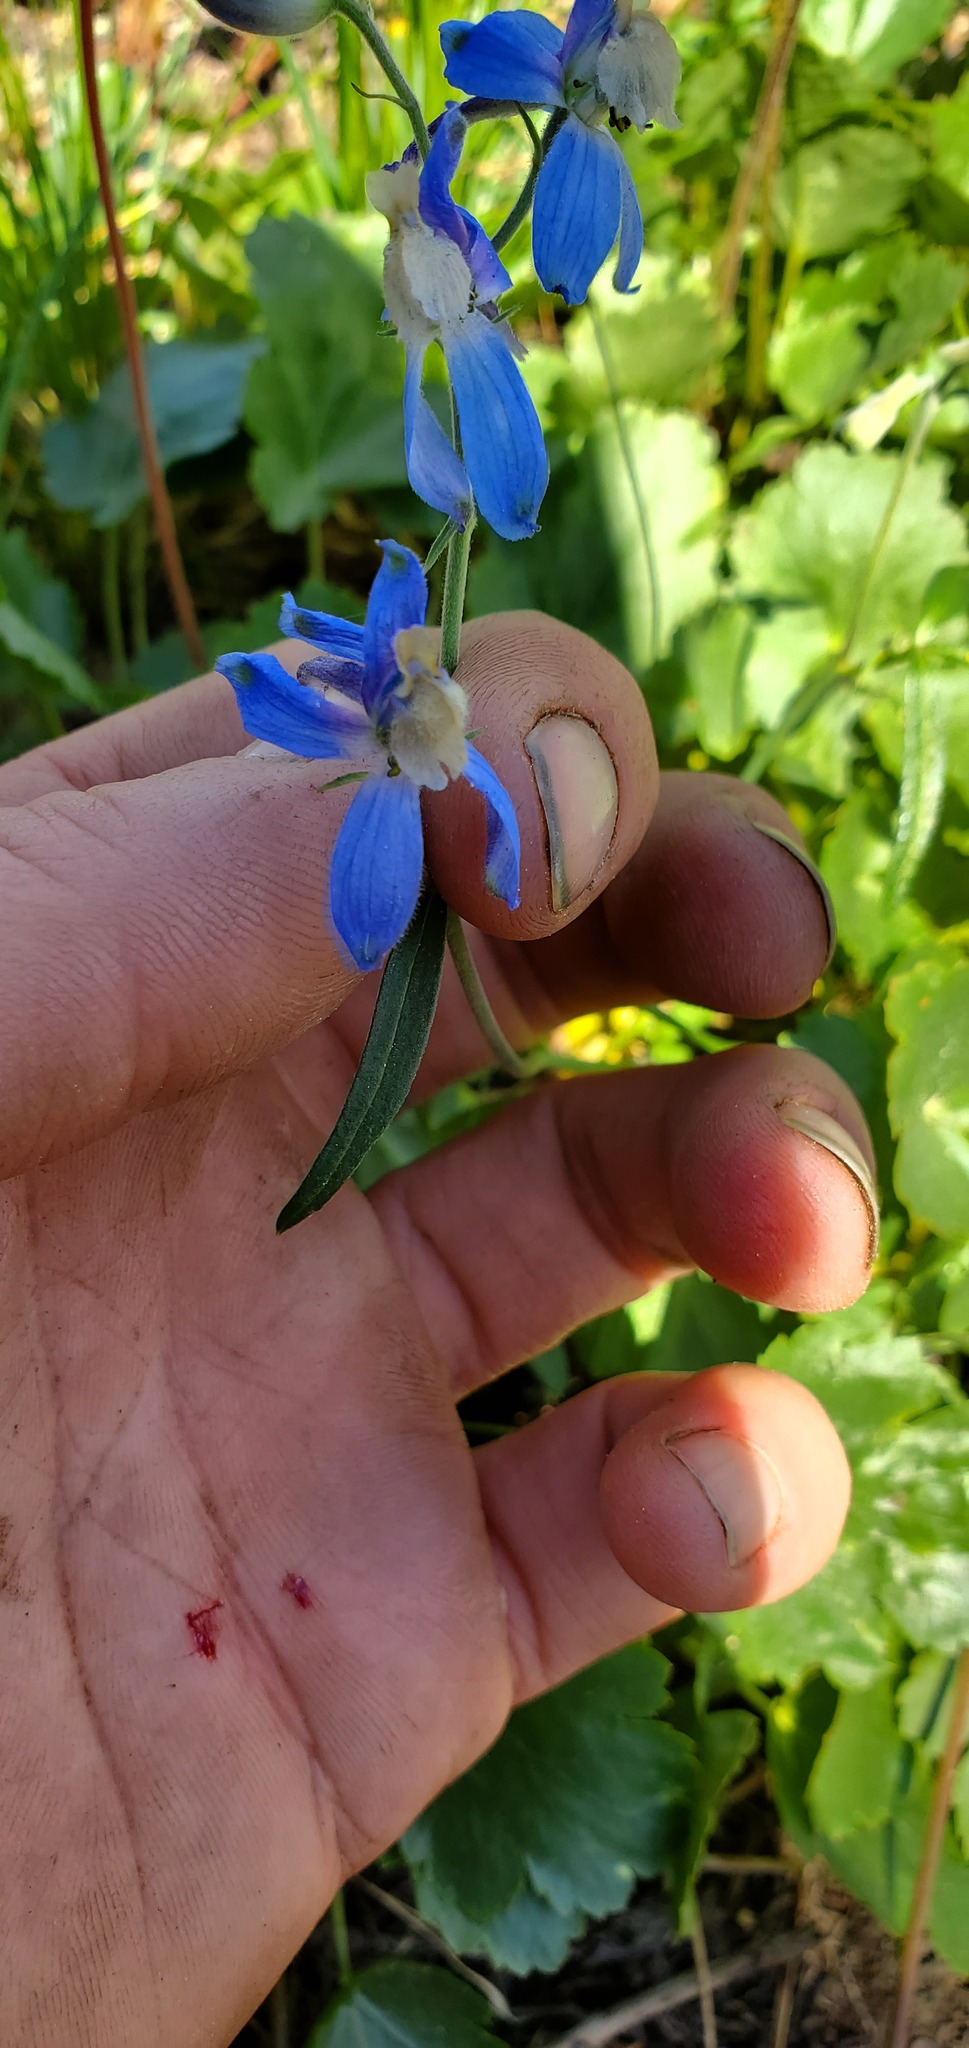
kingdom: Plantae
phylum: Tracheophyta
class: Magnoliopsida
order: Ranunculales
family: Ranunculaceae
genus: Delphinium
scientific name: Delphinium sutherlandii
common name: Sutherland's larkspur
